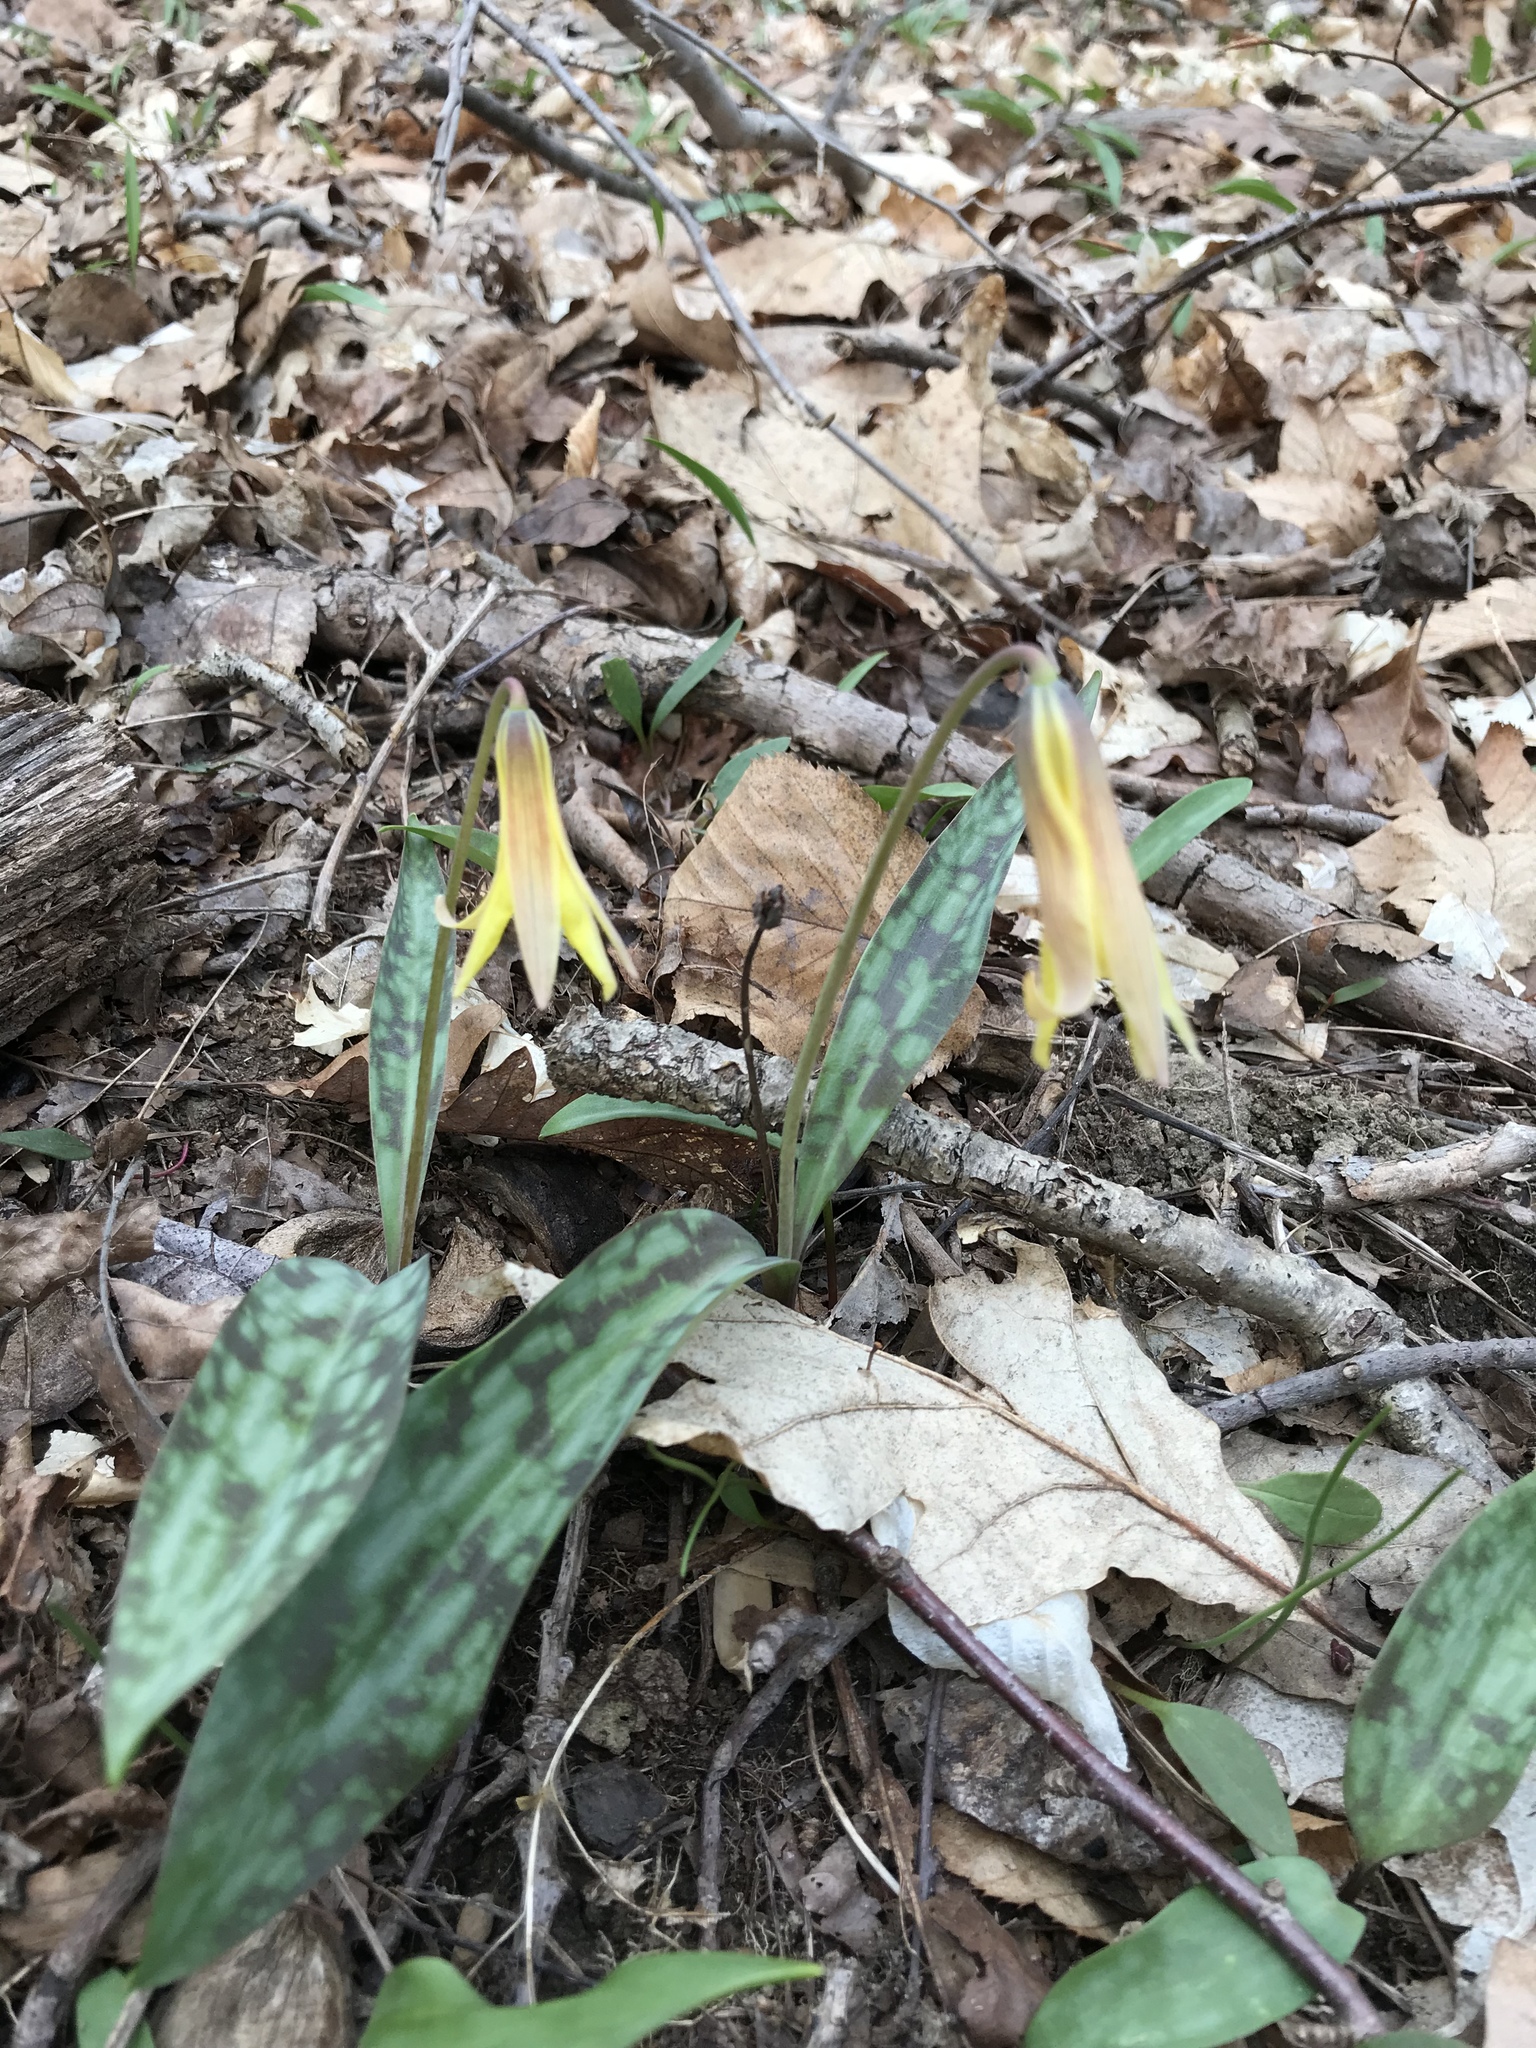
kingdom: Plantae
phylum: Tracheophyta
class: Liliopsida
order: Liliales
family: Liliaceae
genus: Erythronium
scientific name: Erythronium americanum
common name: Yellow adder's-tongue
